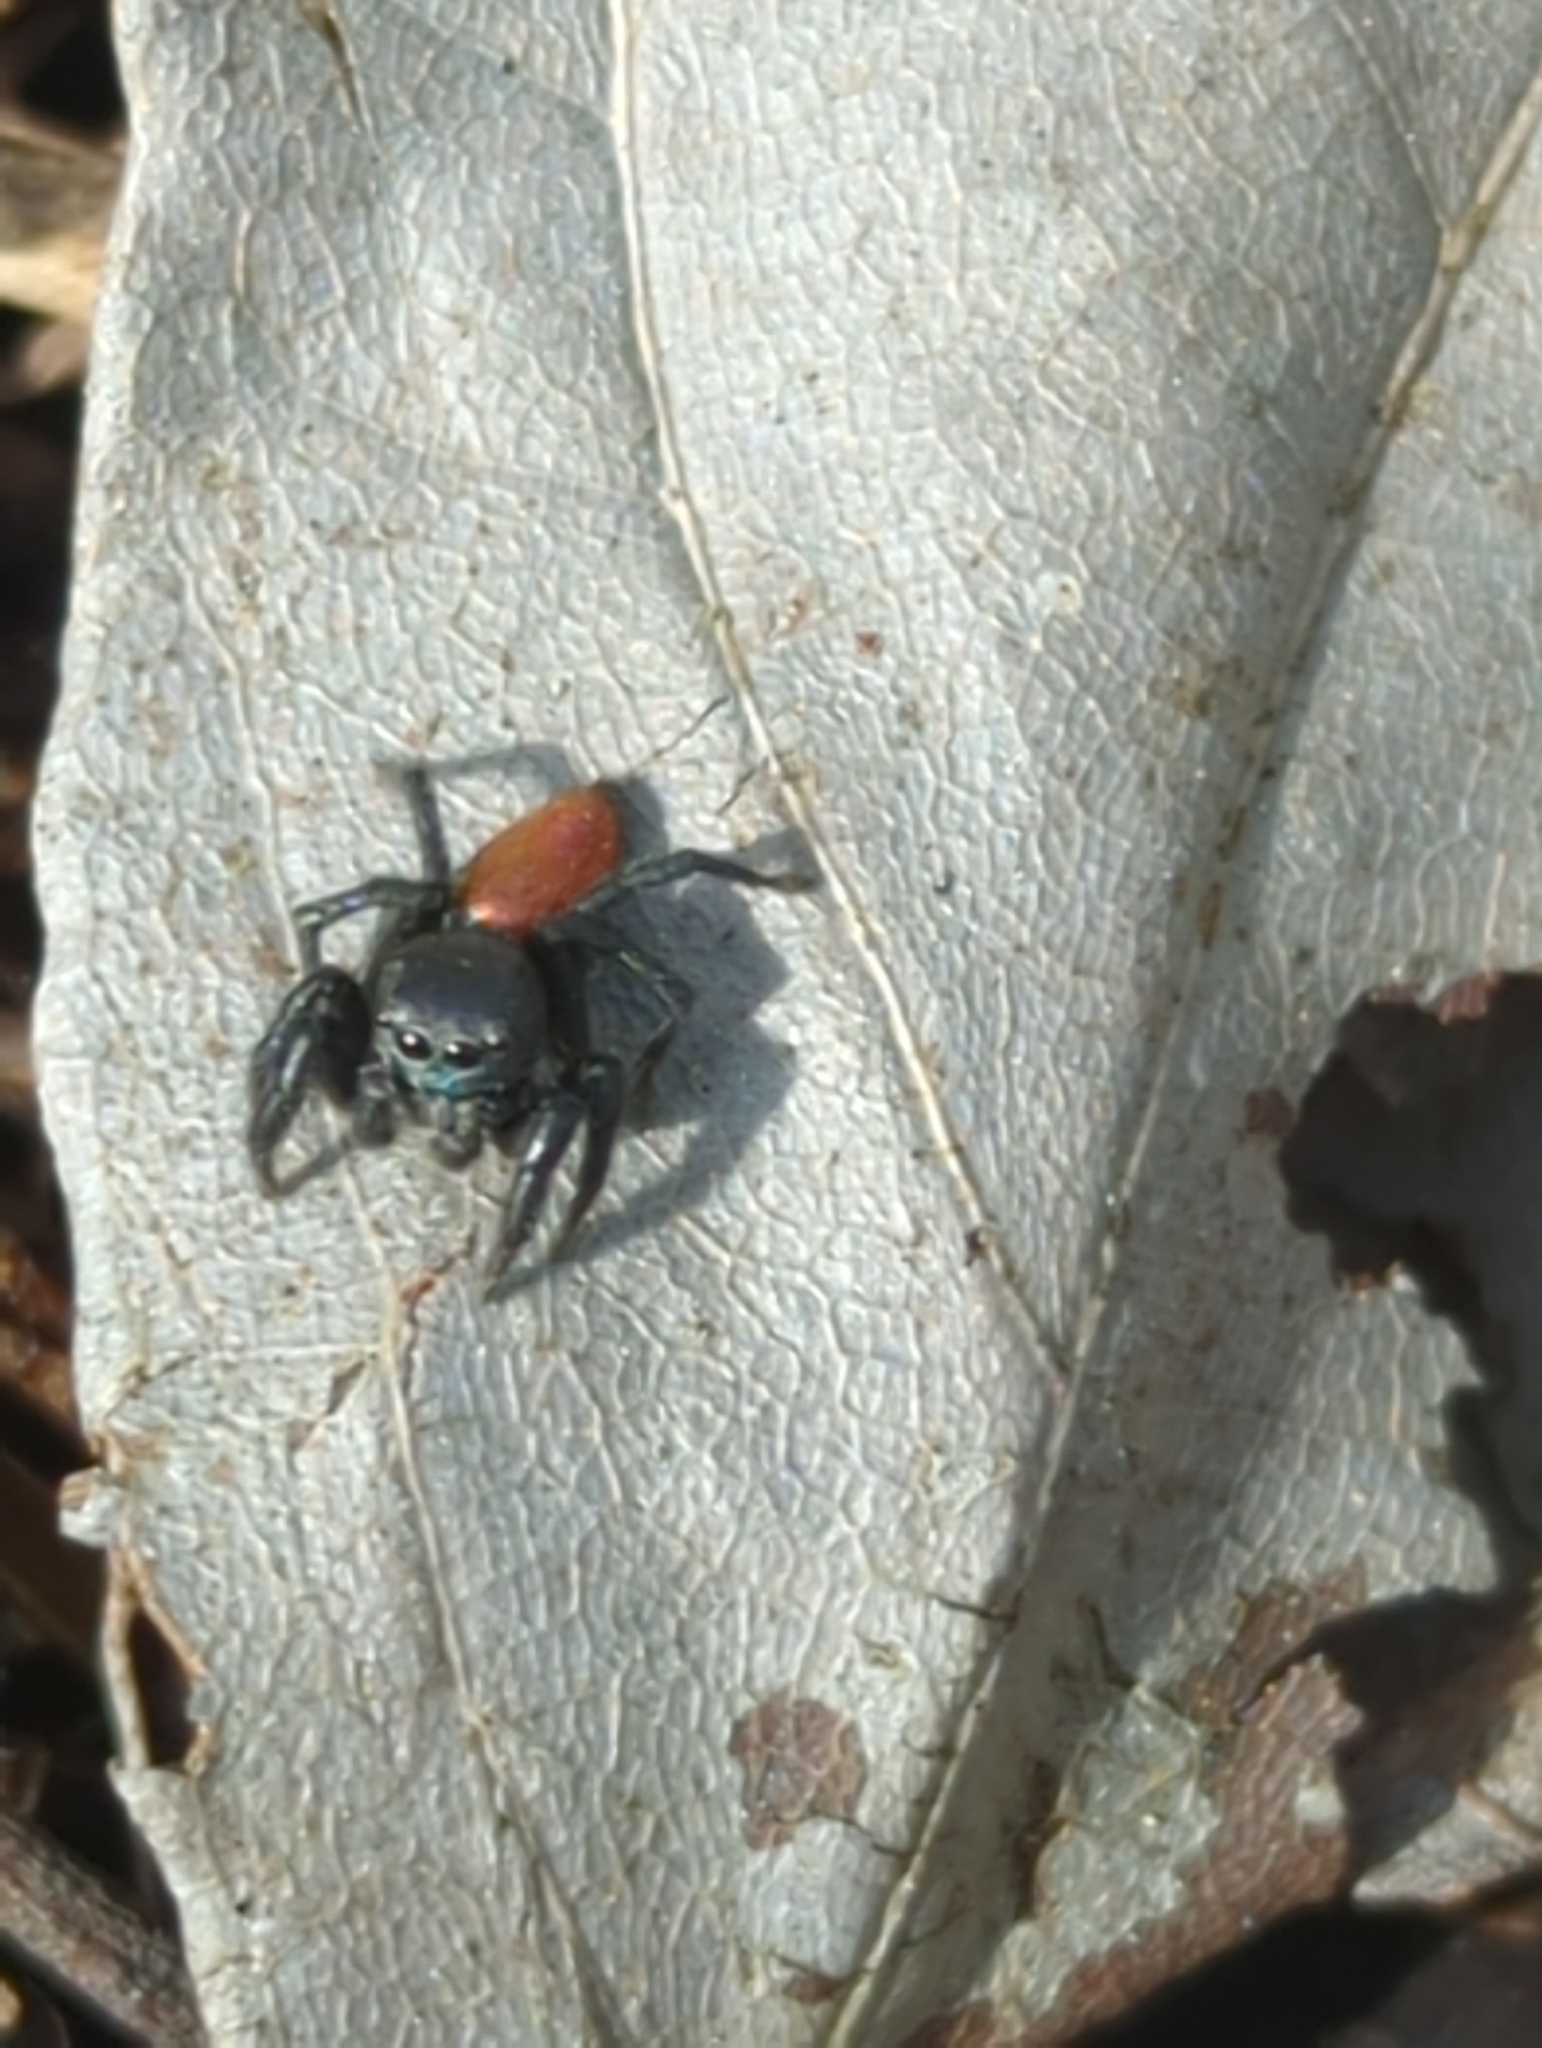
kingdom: Animalia
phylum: Arthropoda
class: Arachnida
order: Araneae
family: Salticidae
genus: Habronattus
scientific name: Habronattus decorus
